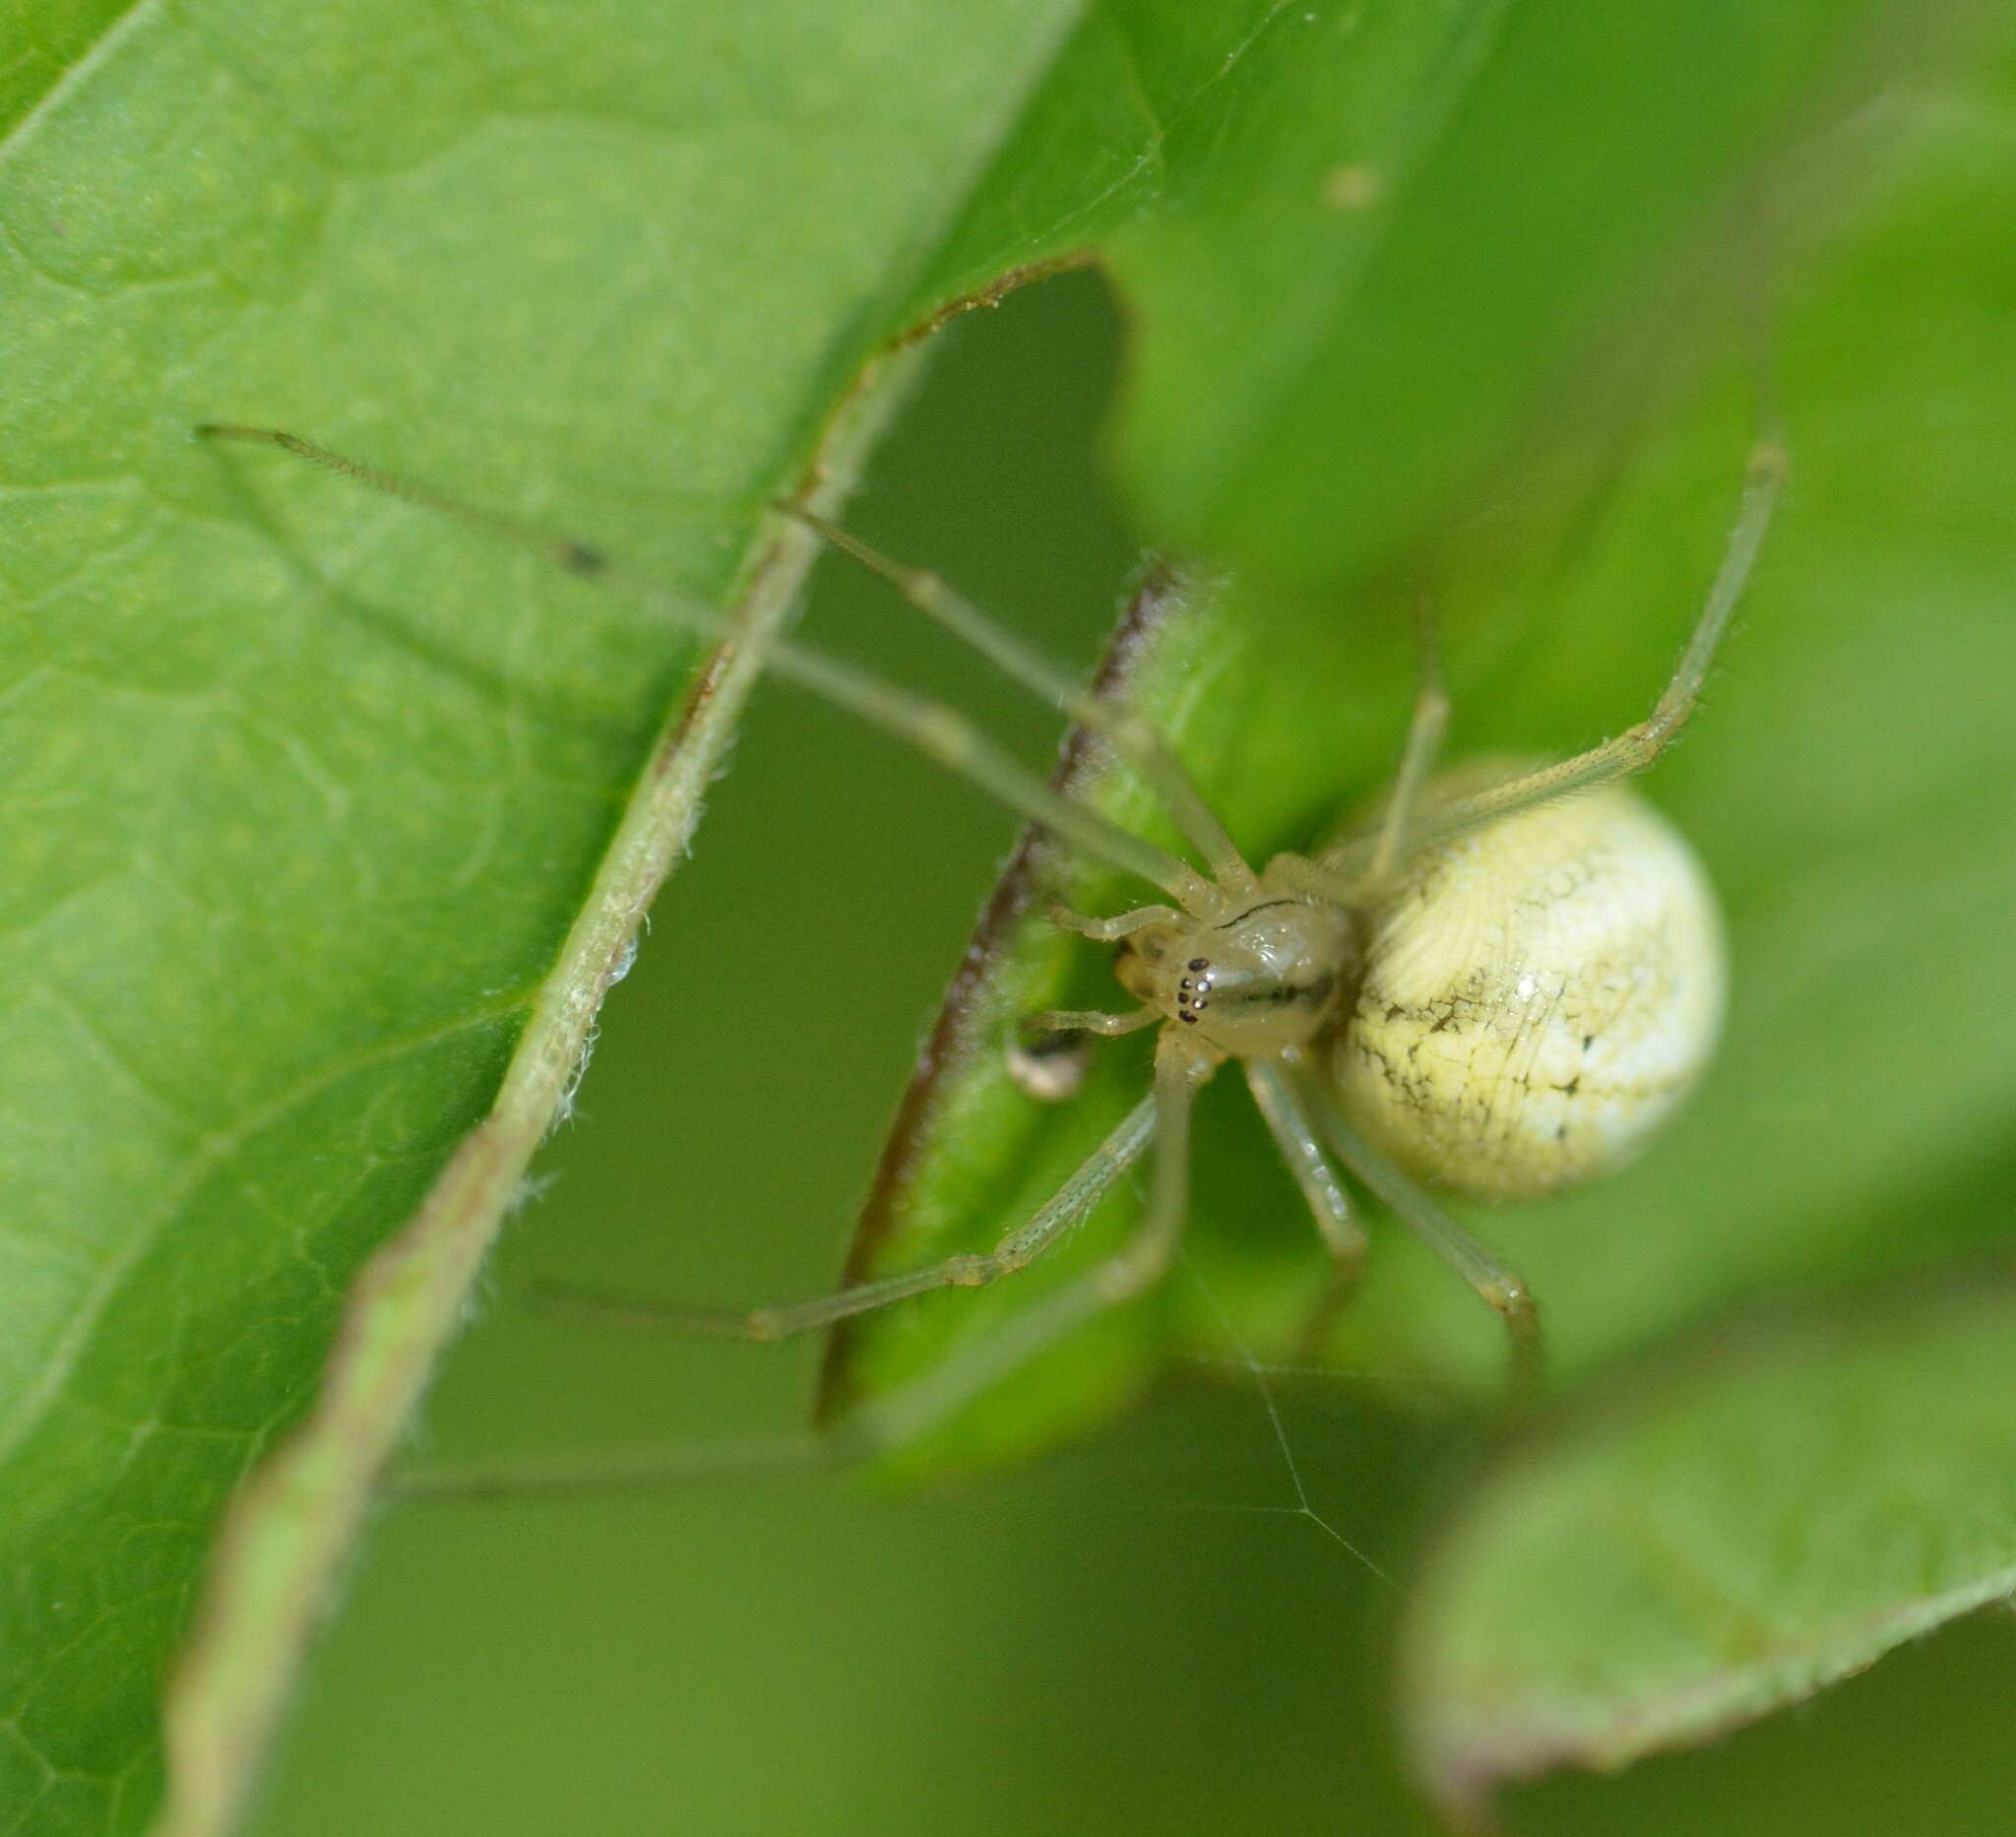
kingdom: Animalia
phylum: Arthropoda
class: Arachnida
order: Araneae
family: Theridiidae
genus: Enoplognatha
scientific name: Enoplognatha ovata
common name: Common candy-striped spider
